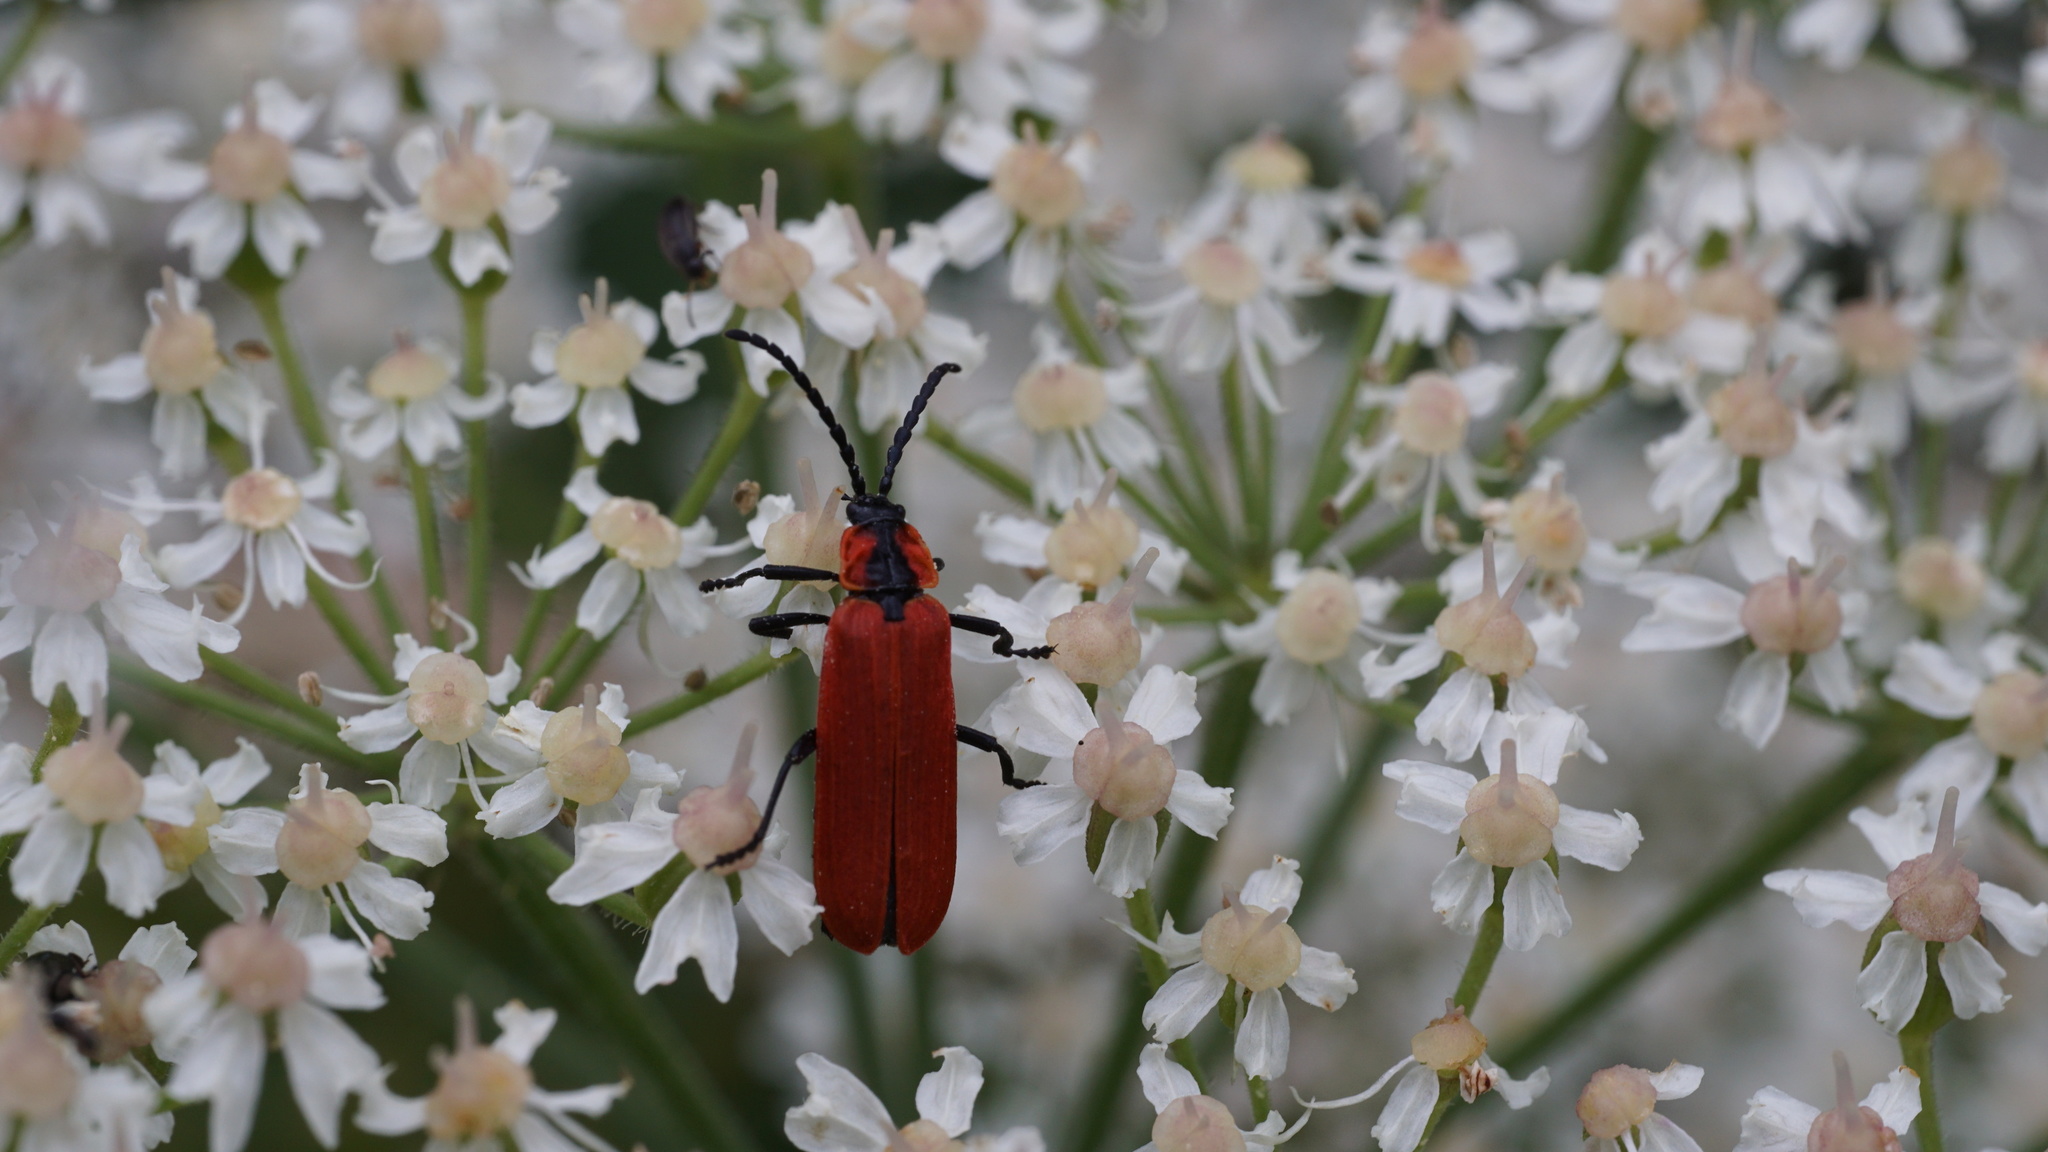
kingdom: Animalia
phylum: Arthropoda
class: Insecta
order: Coleoptera
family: Lycidae
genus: Lygistopterus
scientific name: Lygistopterus sanguineus
